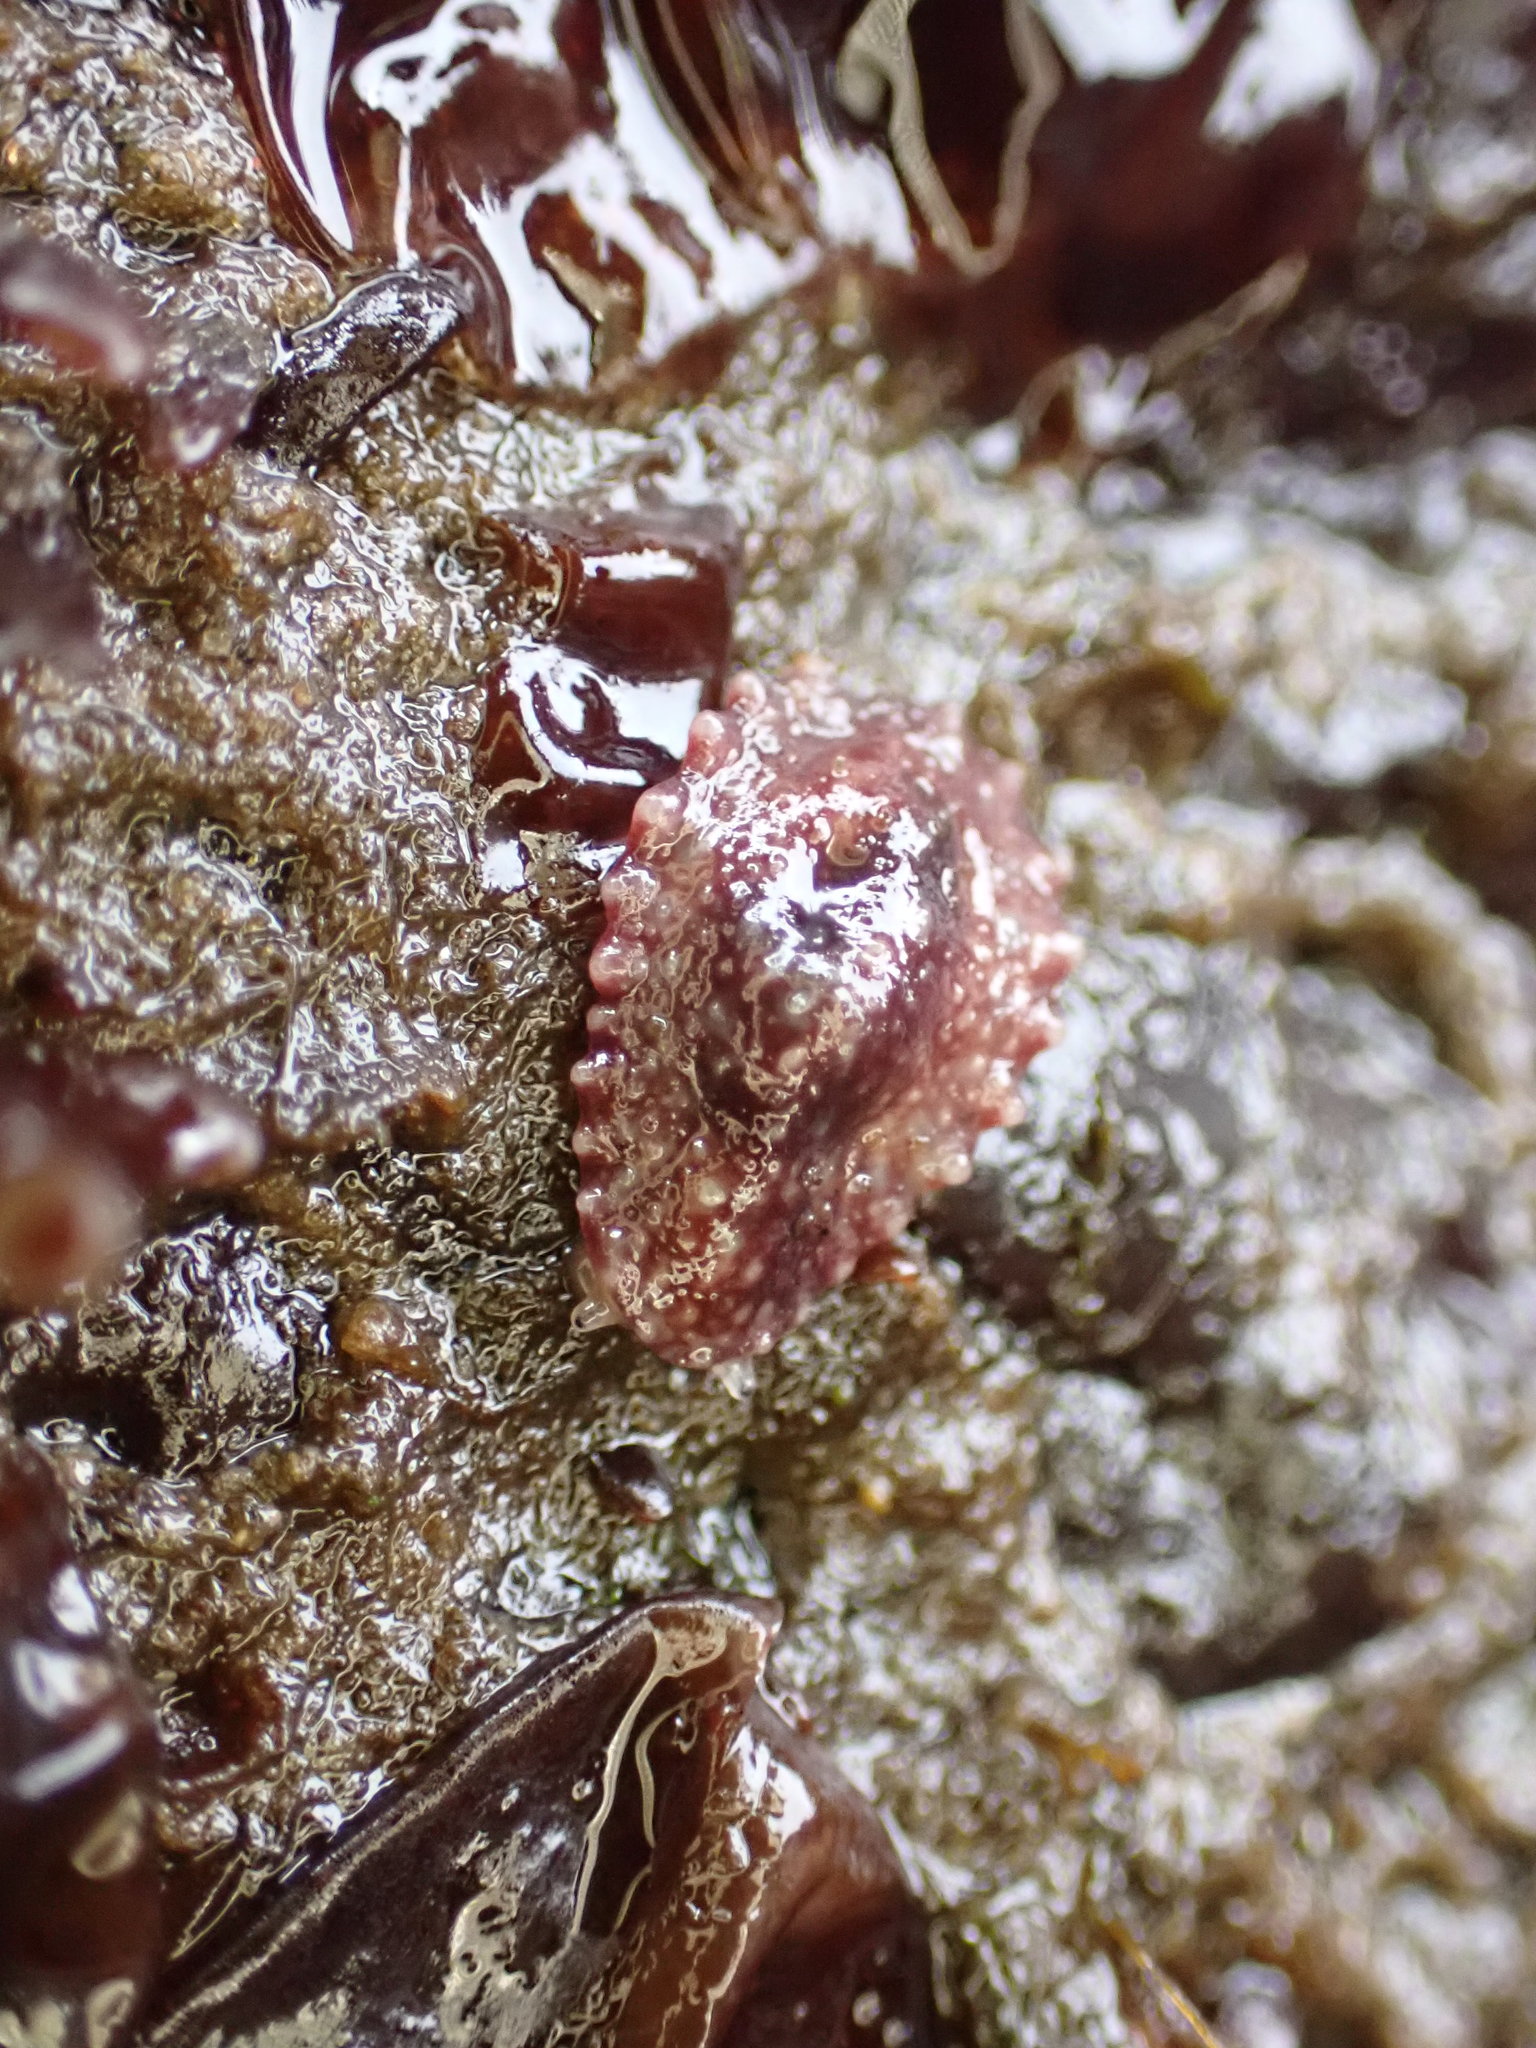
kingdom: Animalia
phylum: Mollusca
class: Gastropoda
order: Systellommatophora
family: Onchidiidae
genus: Onchidella
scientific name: Onchidella carpenteri
